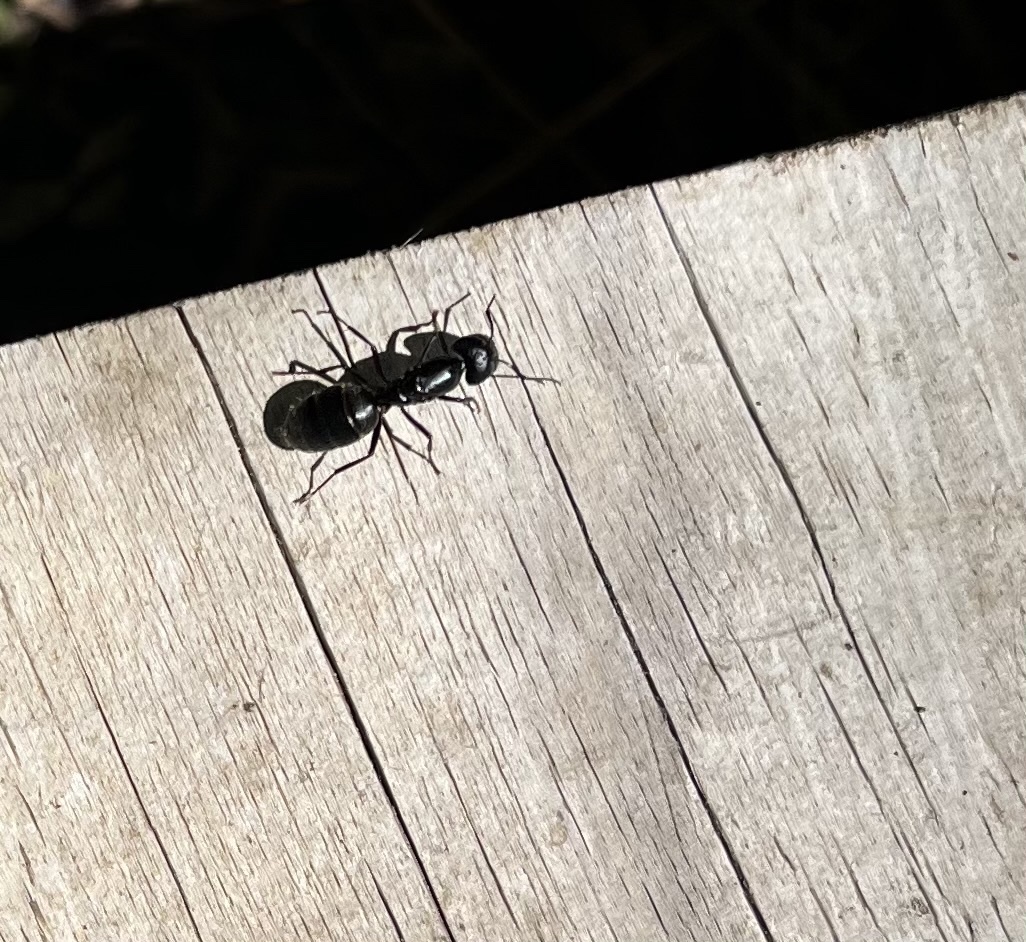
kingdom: Animalia
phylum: Arthropoda
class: Insecta
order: Hymenoptera
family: Formicidae
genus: Camponotus
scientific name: Camponotus pennsylvanicus
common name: Black carpenter ant
